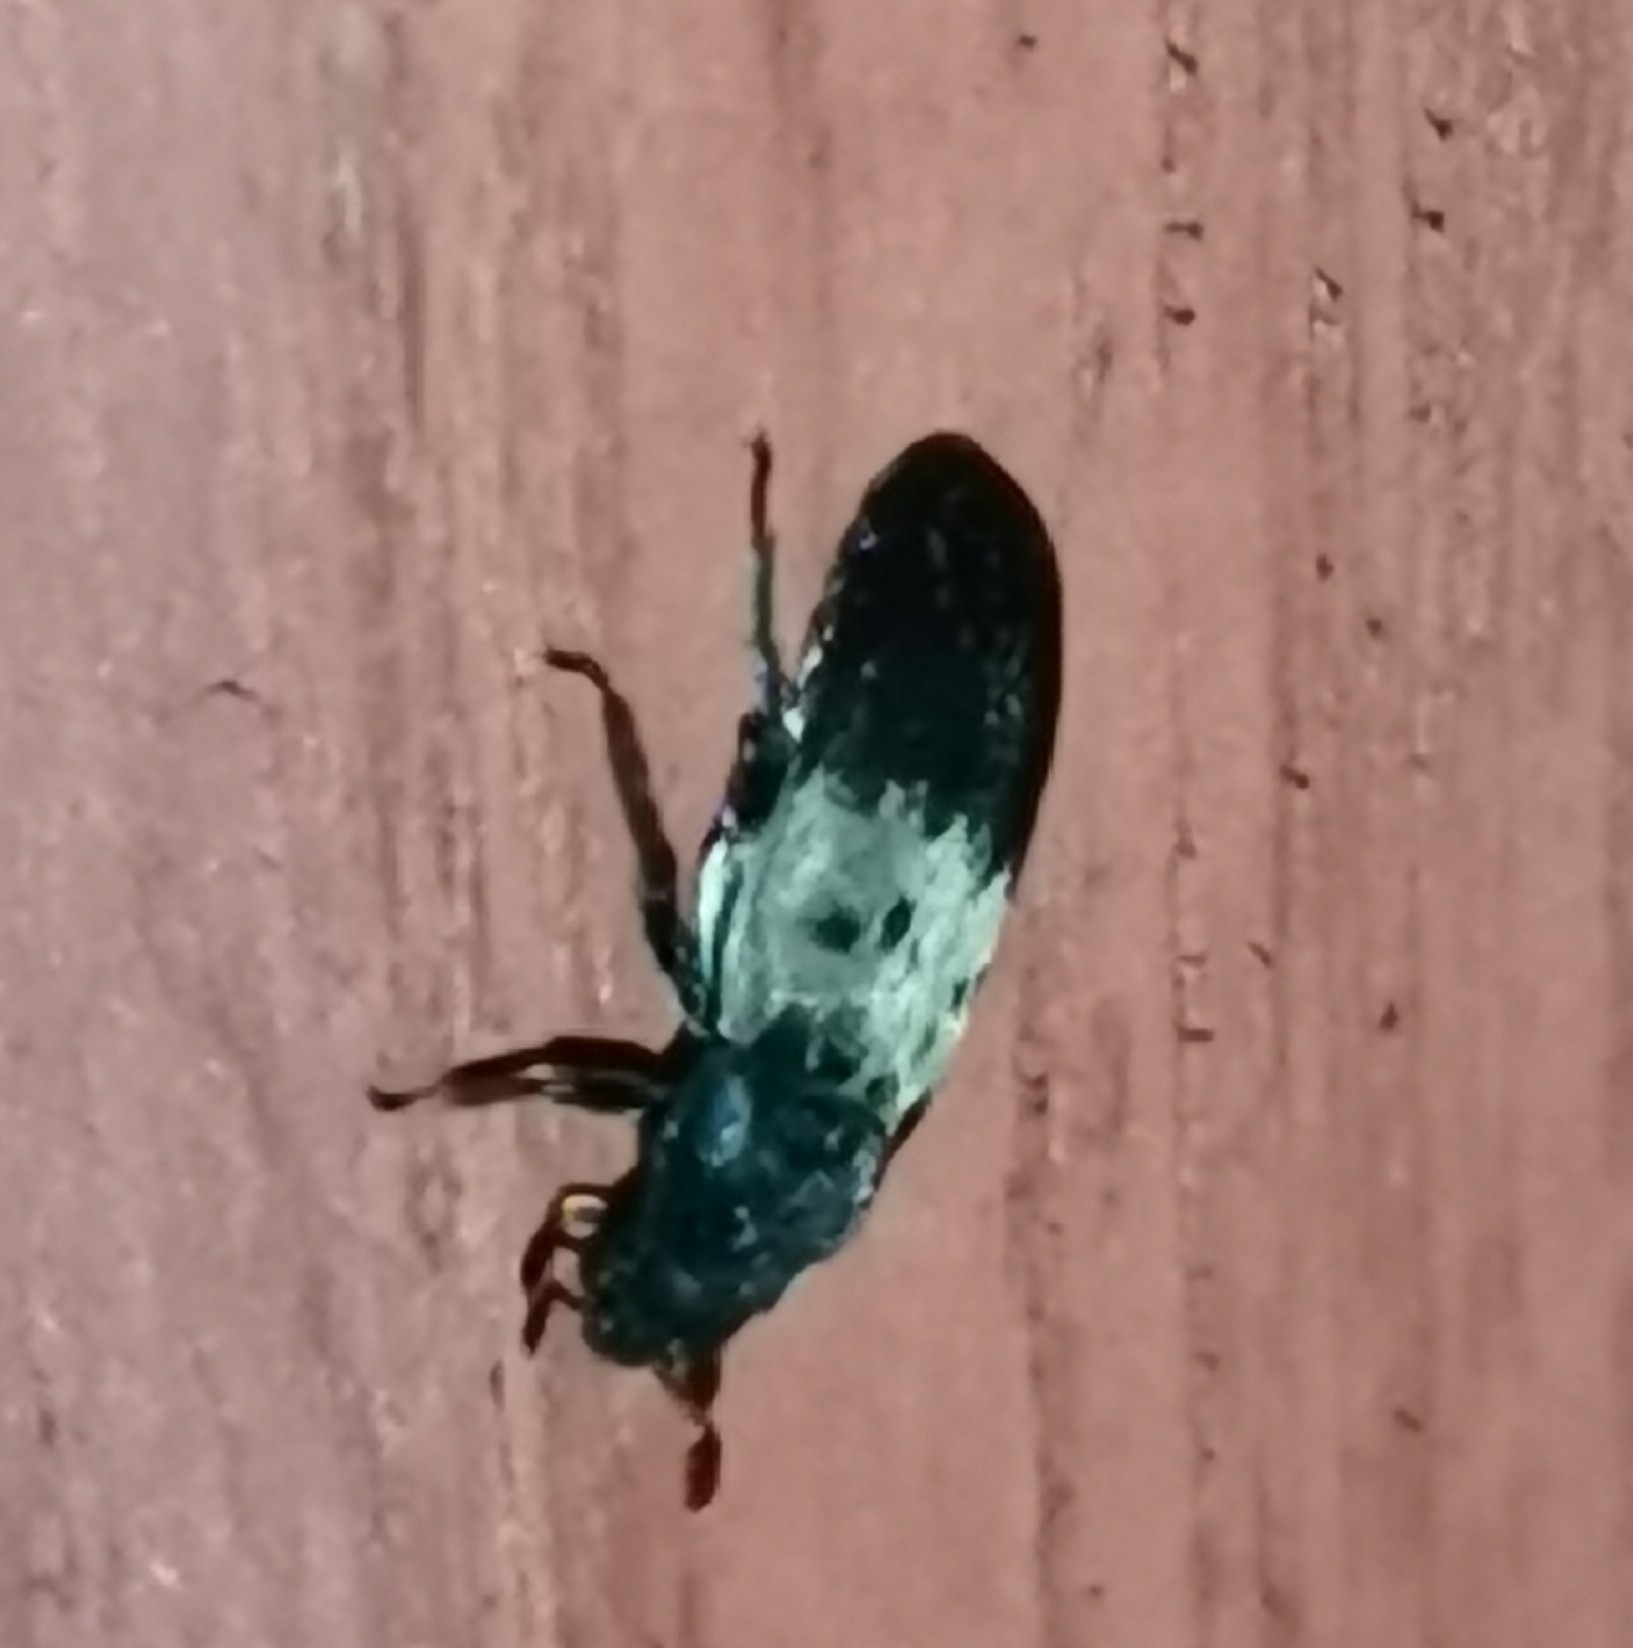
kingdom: Animalia
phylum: Arthropoda
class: Insecta
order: Coleoptera
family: Dermestidae
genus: Dermestes
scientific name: Dermestes lardarius
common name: Larder beetle
